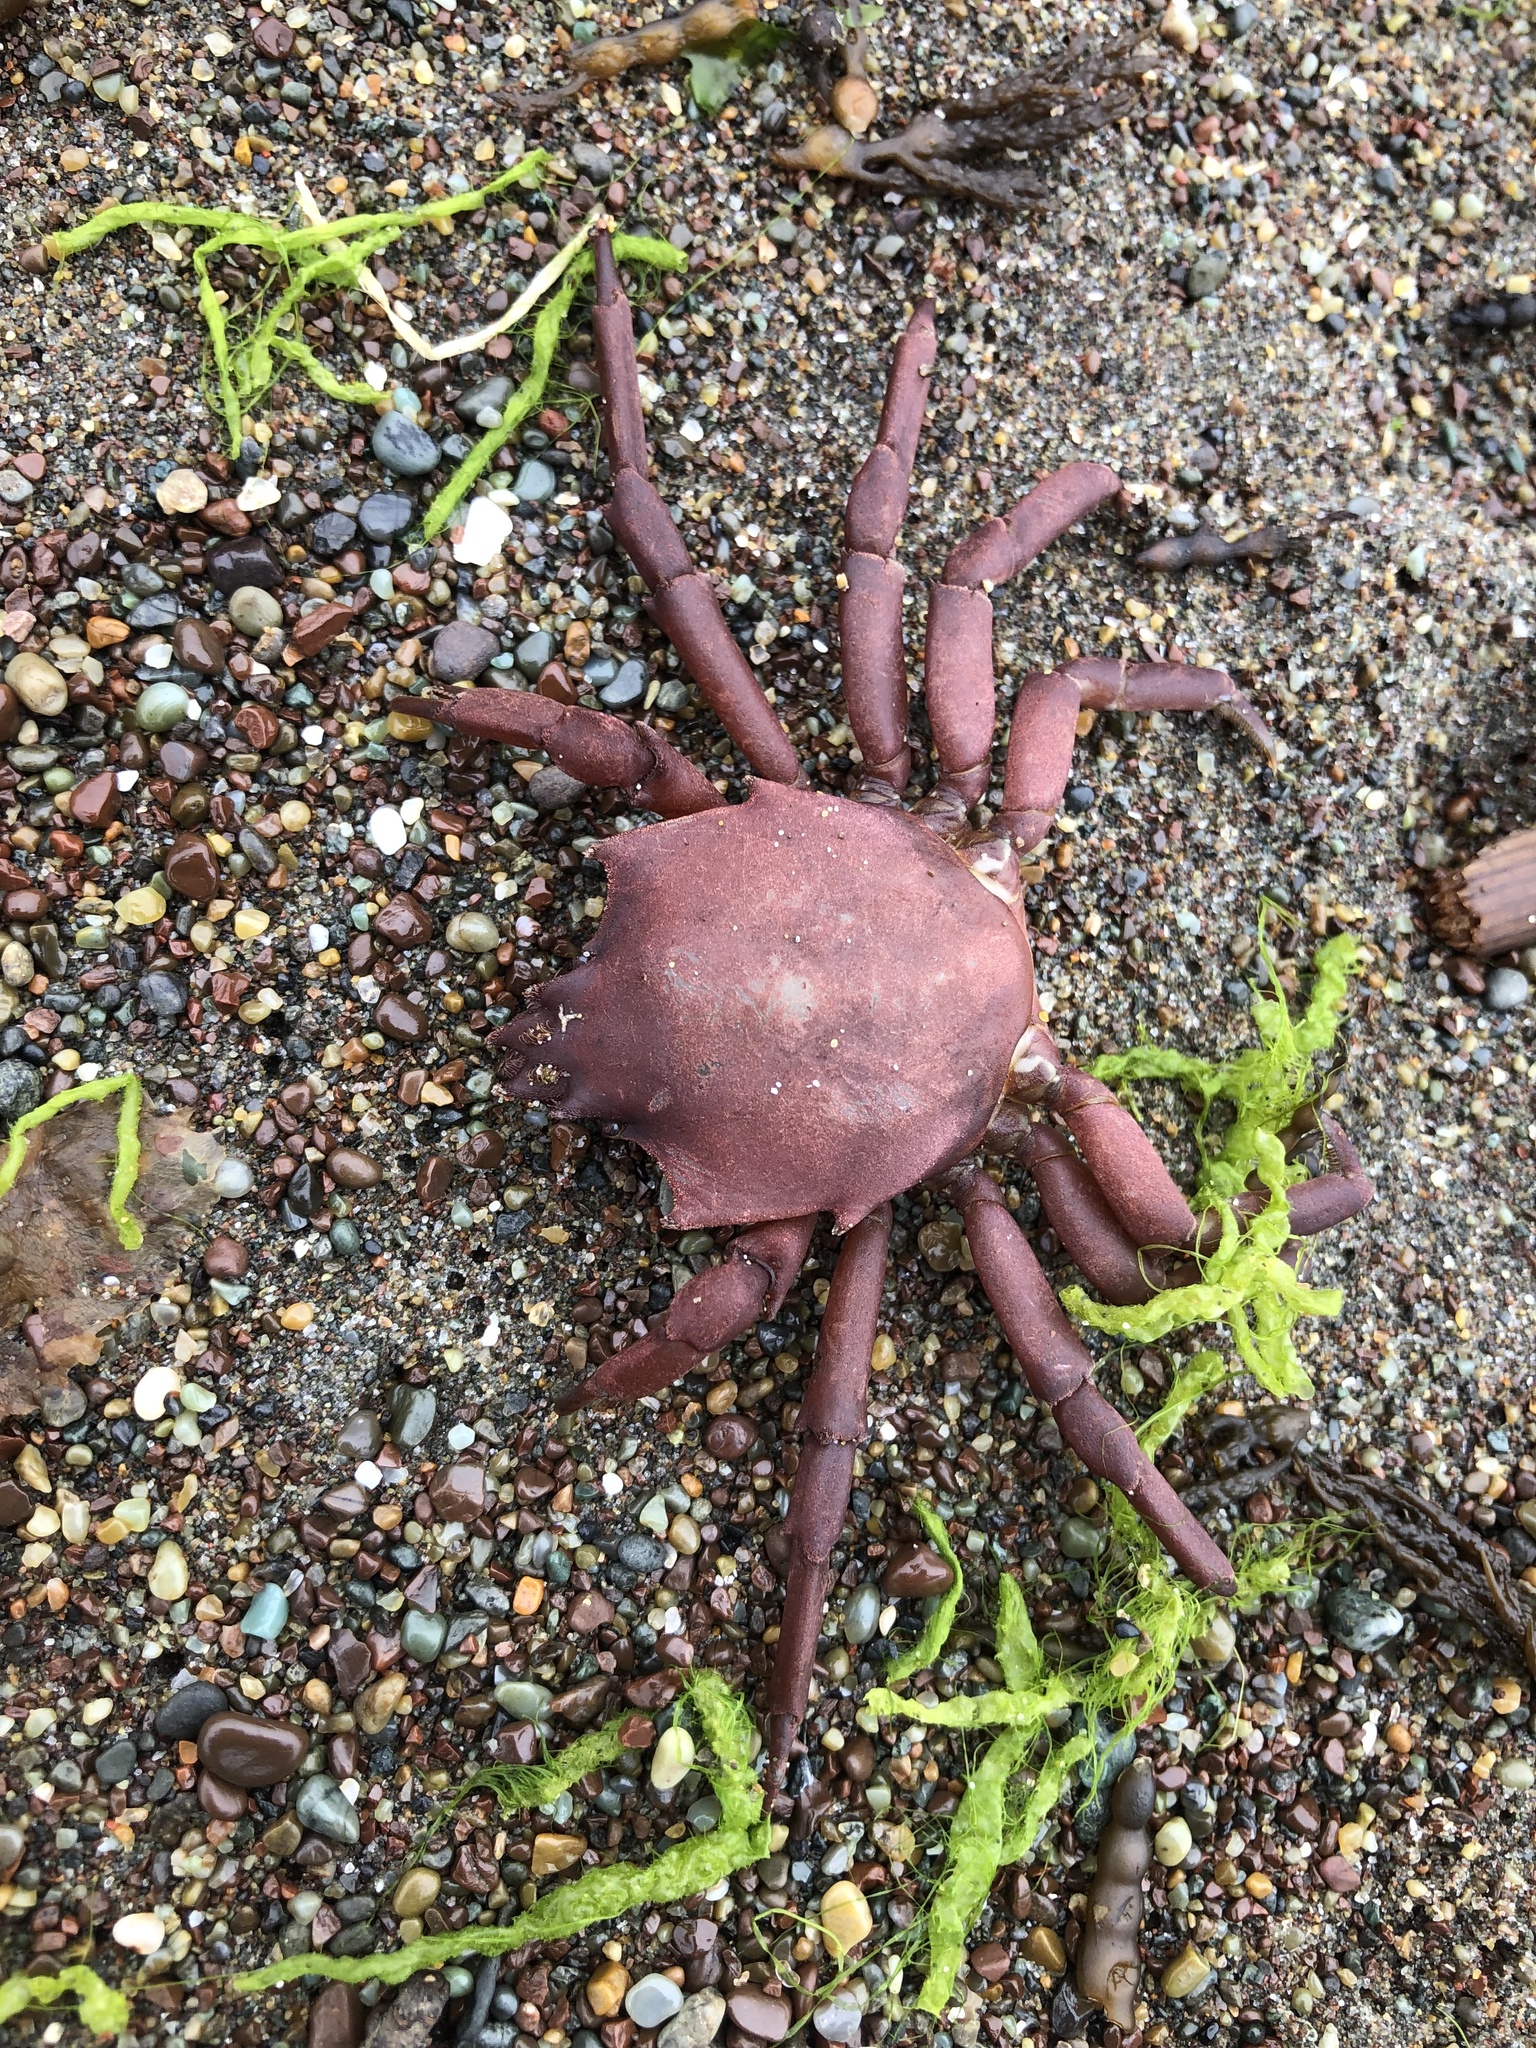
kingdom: Animalia
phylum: Arthropoda
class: Malacostraca
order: Decapoda
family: Epialtidae
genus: Pugettia
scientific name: Pugettia producta
